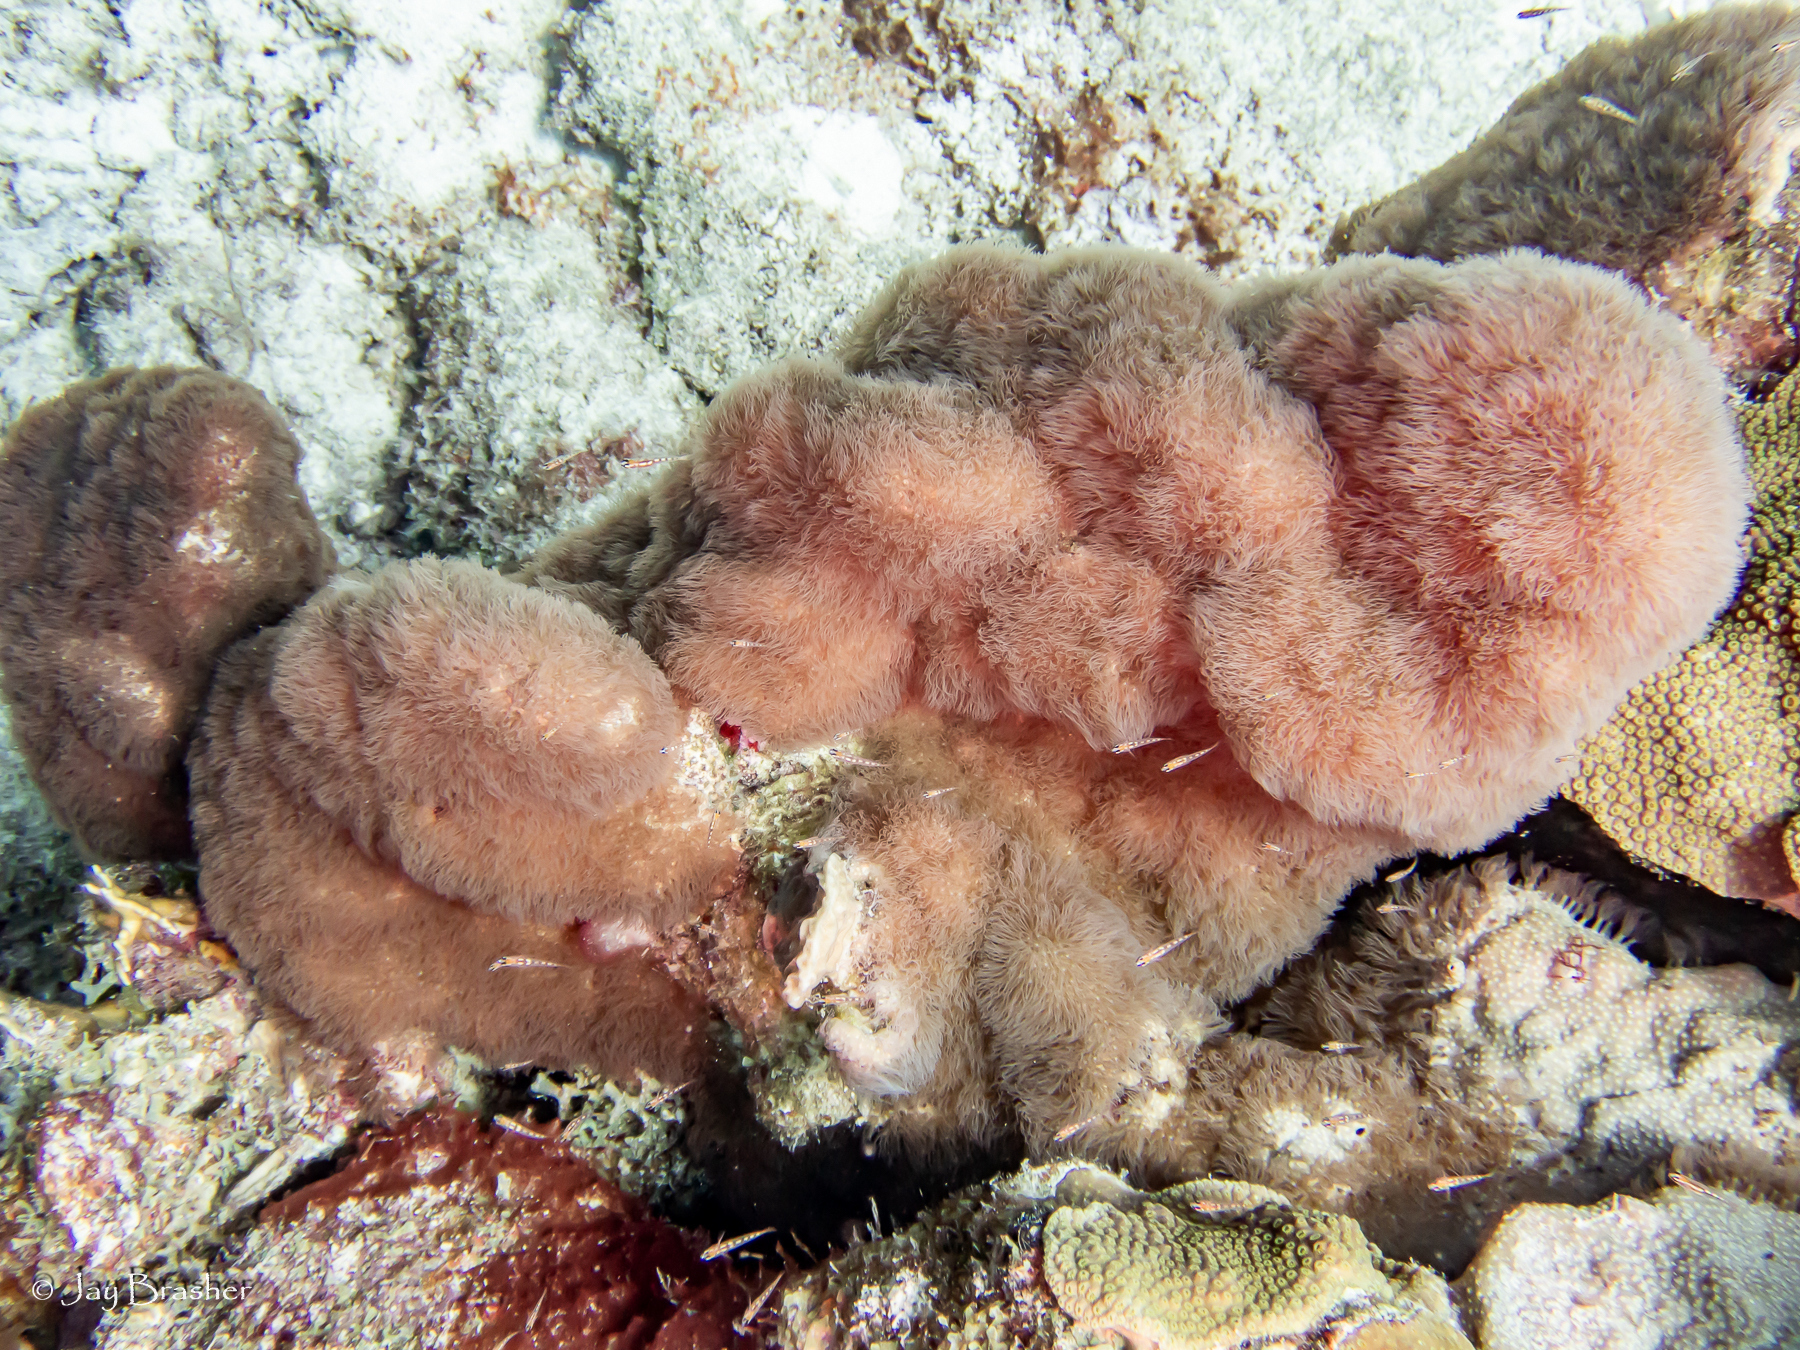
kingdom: Animalia
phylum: Cnidaria
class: Anthozoa
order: Scleralcyonacea
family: Erythropodiidae
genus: Erythropodium
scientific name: Erythropodium caribaeorum
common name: Encrusting gorgonian
